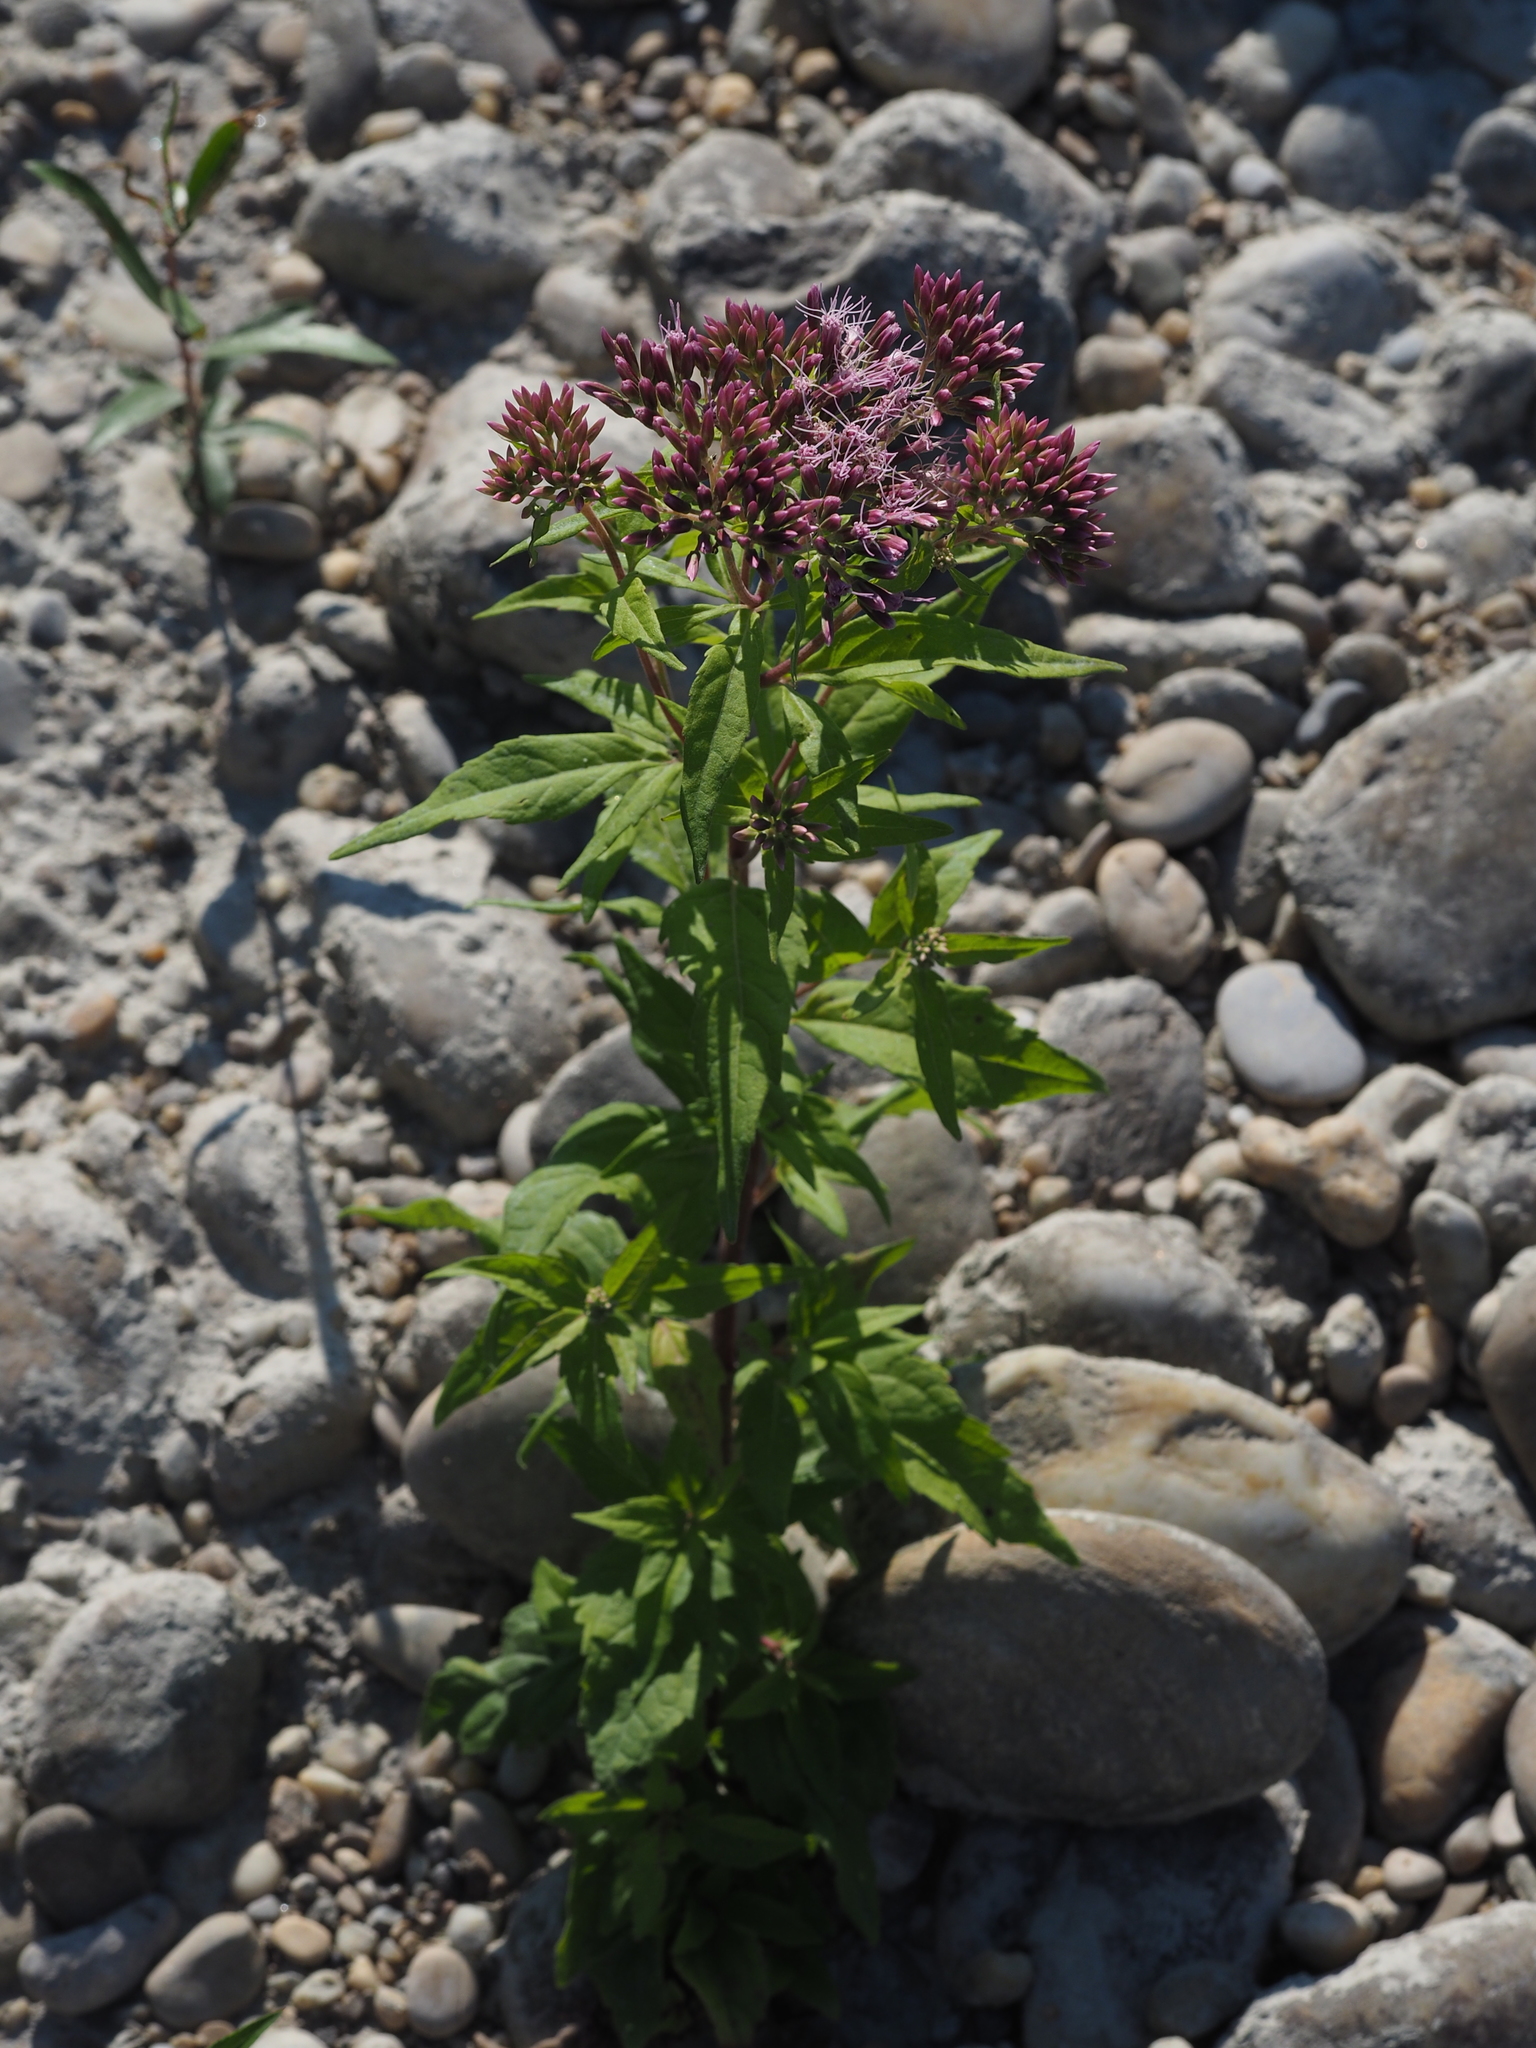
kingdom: Plantae
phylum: Tracheophyta
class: Magnoliopsida
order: Asterales
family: Asteraceae
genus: Eupatorium
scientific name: Eupatorium cannabinum
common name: Hemp-agrimony
